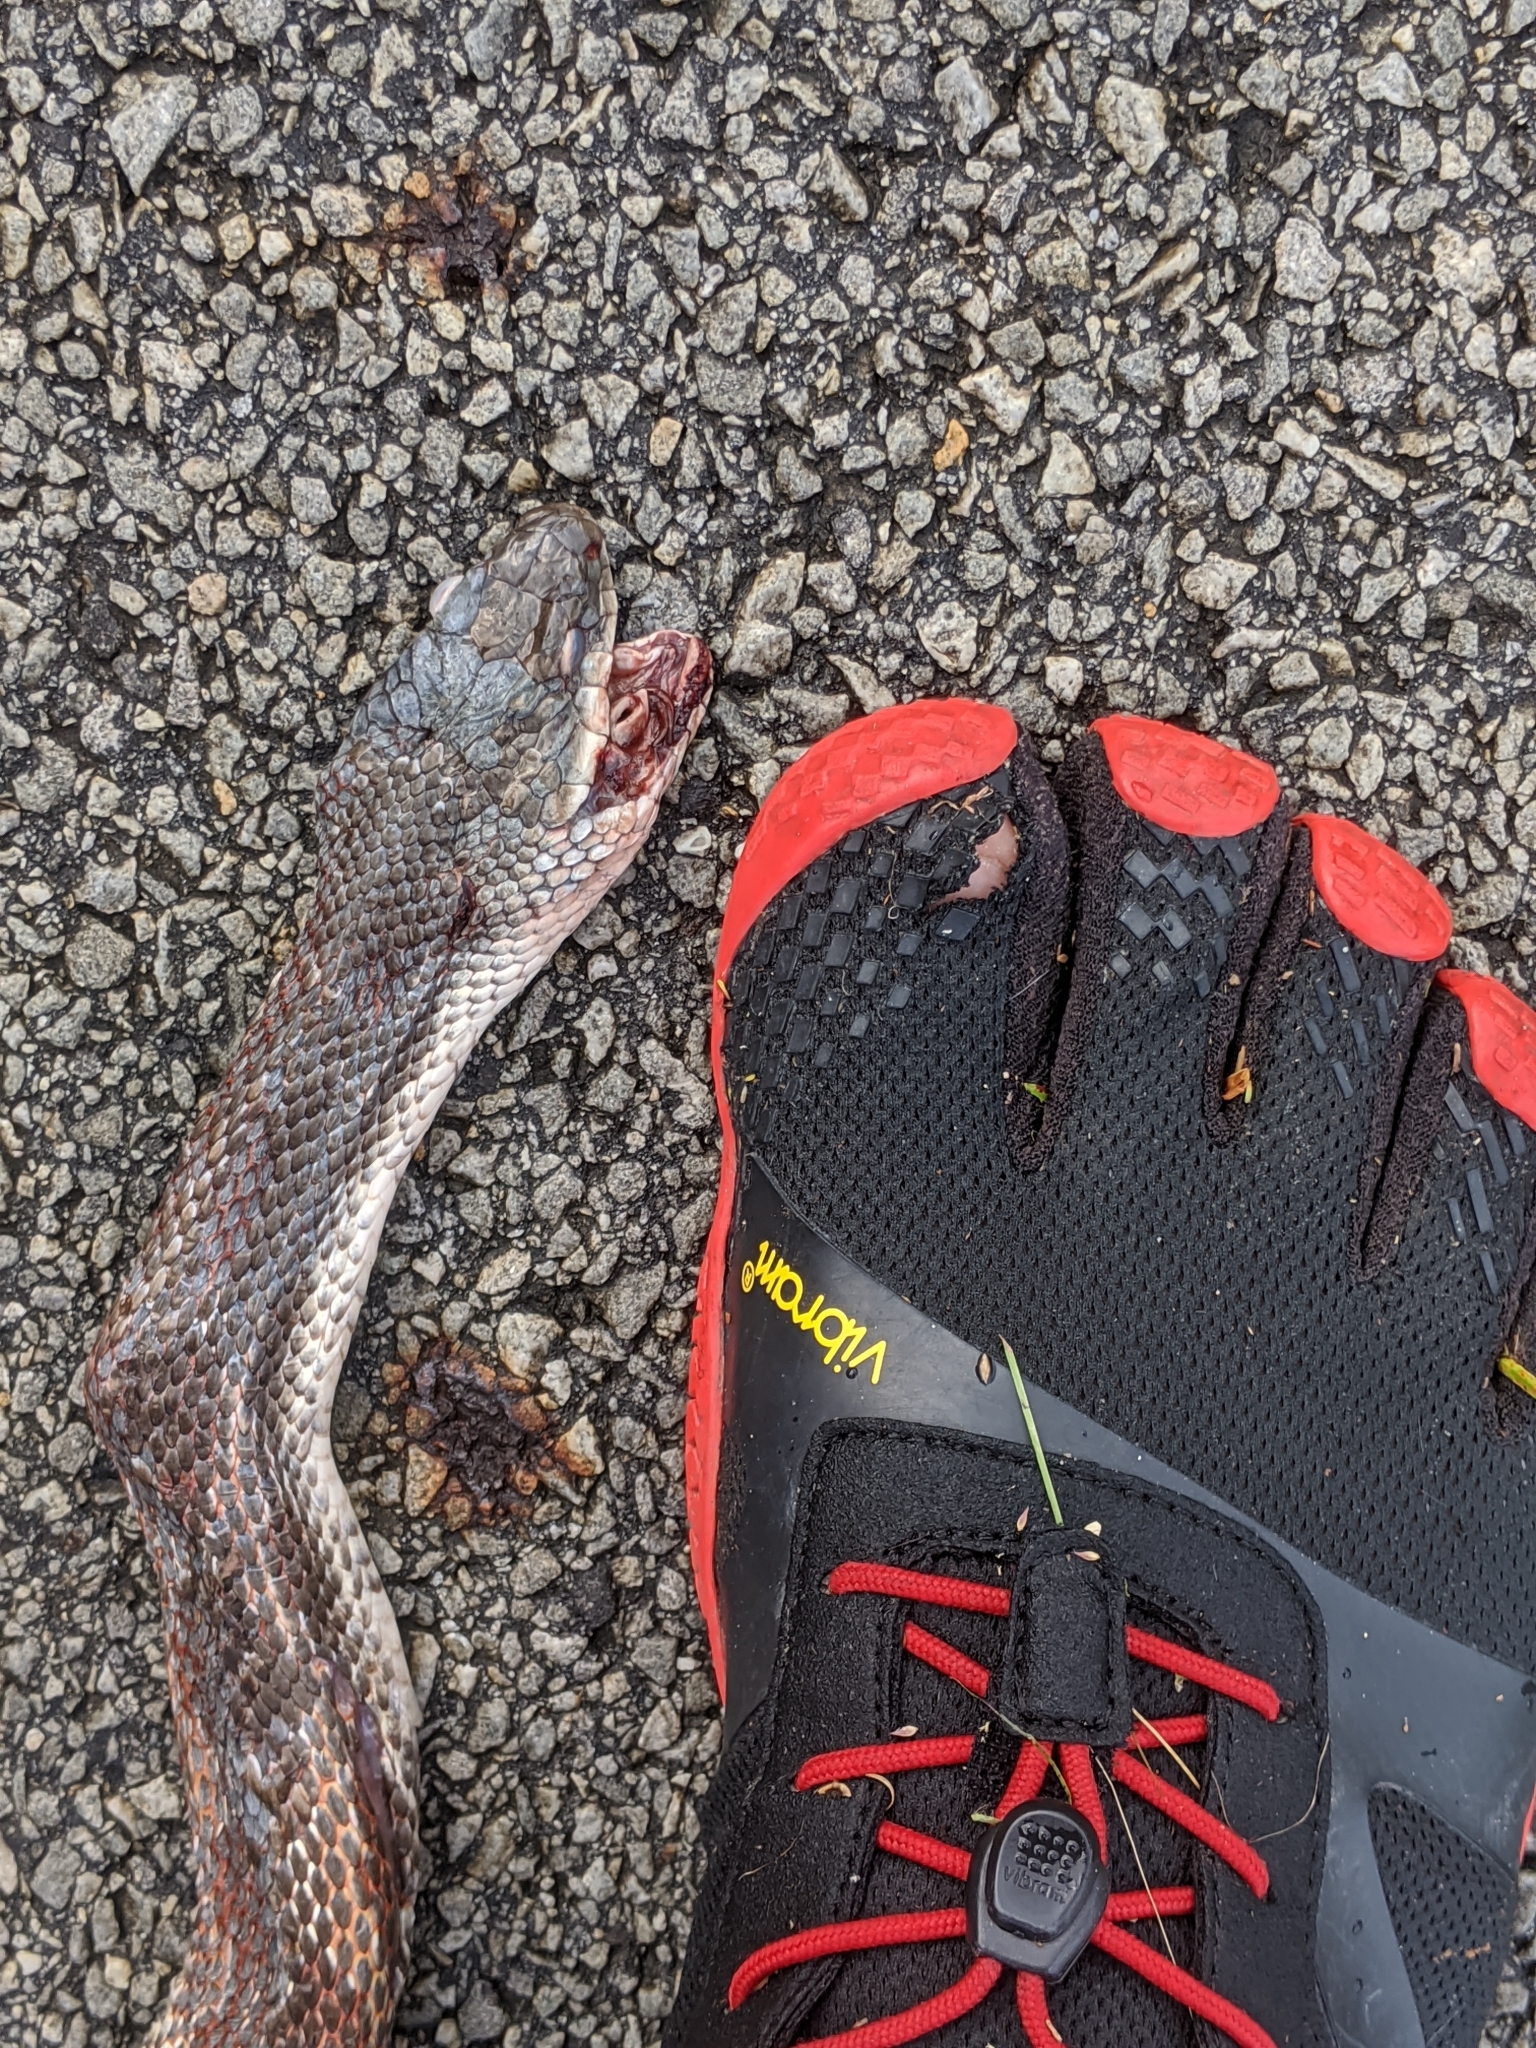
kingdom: Animalia
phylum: Chordata
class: Squamata
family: Colubridae
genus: Pantherophis
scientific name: Pantherophis obsoletus
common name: Black rat snake
